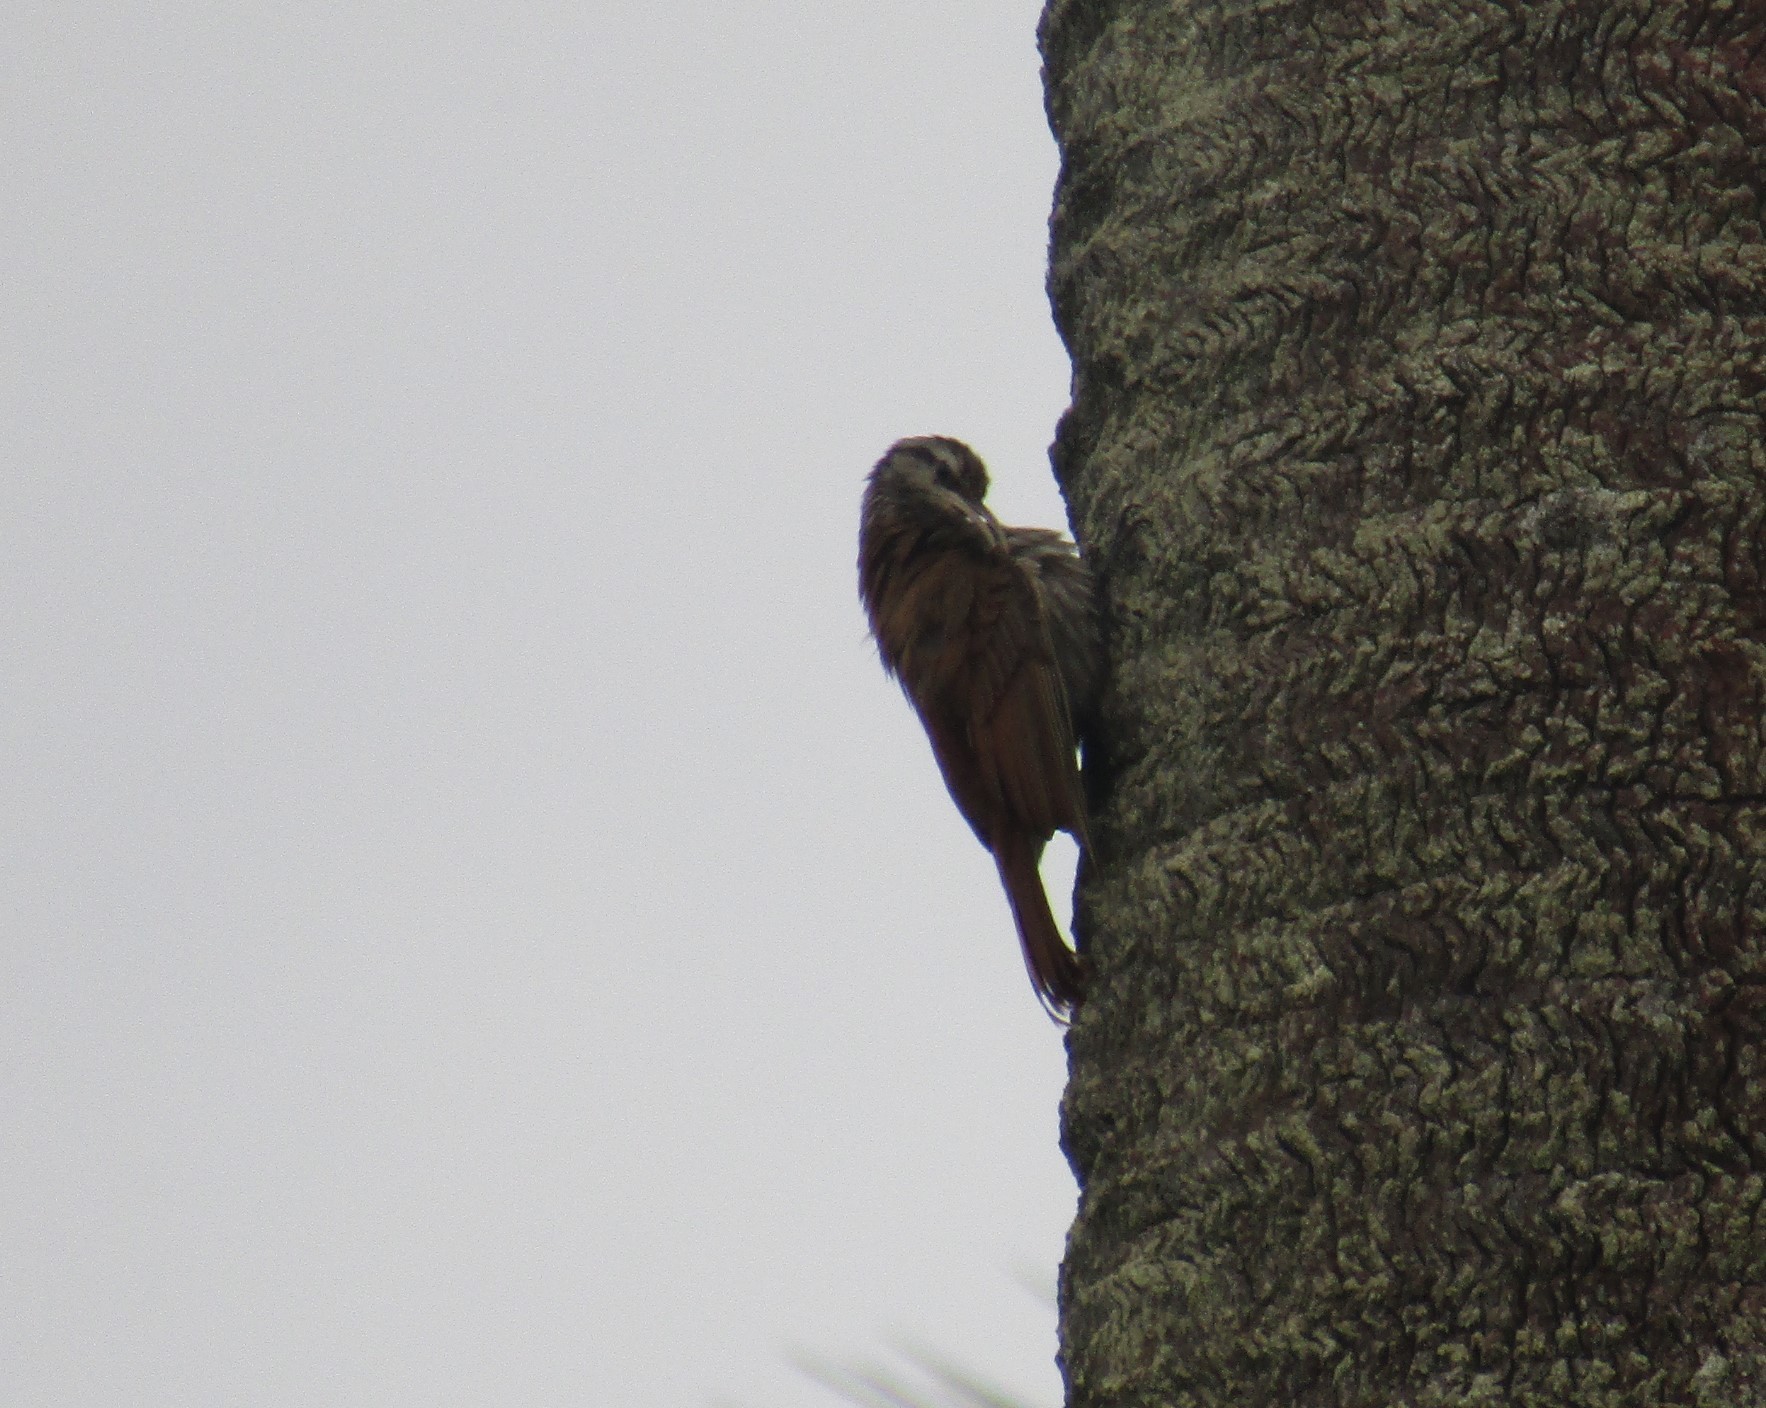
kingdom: Animalia
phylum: Chordata
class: Aves
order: Passeriformes
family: Furnariidae
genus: Lepidocolaptes
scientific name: Lepidocolaptes angustirostris
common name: Narrow-billed woodcreeper
